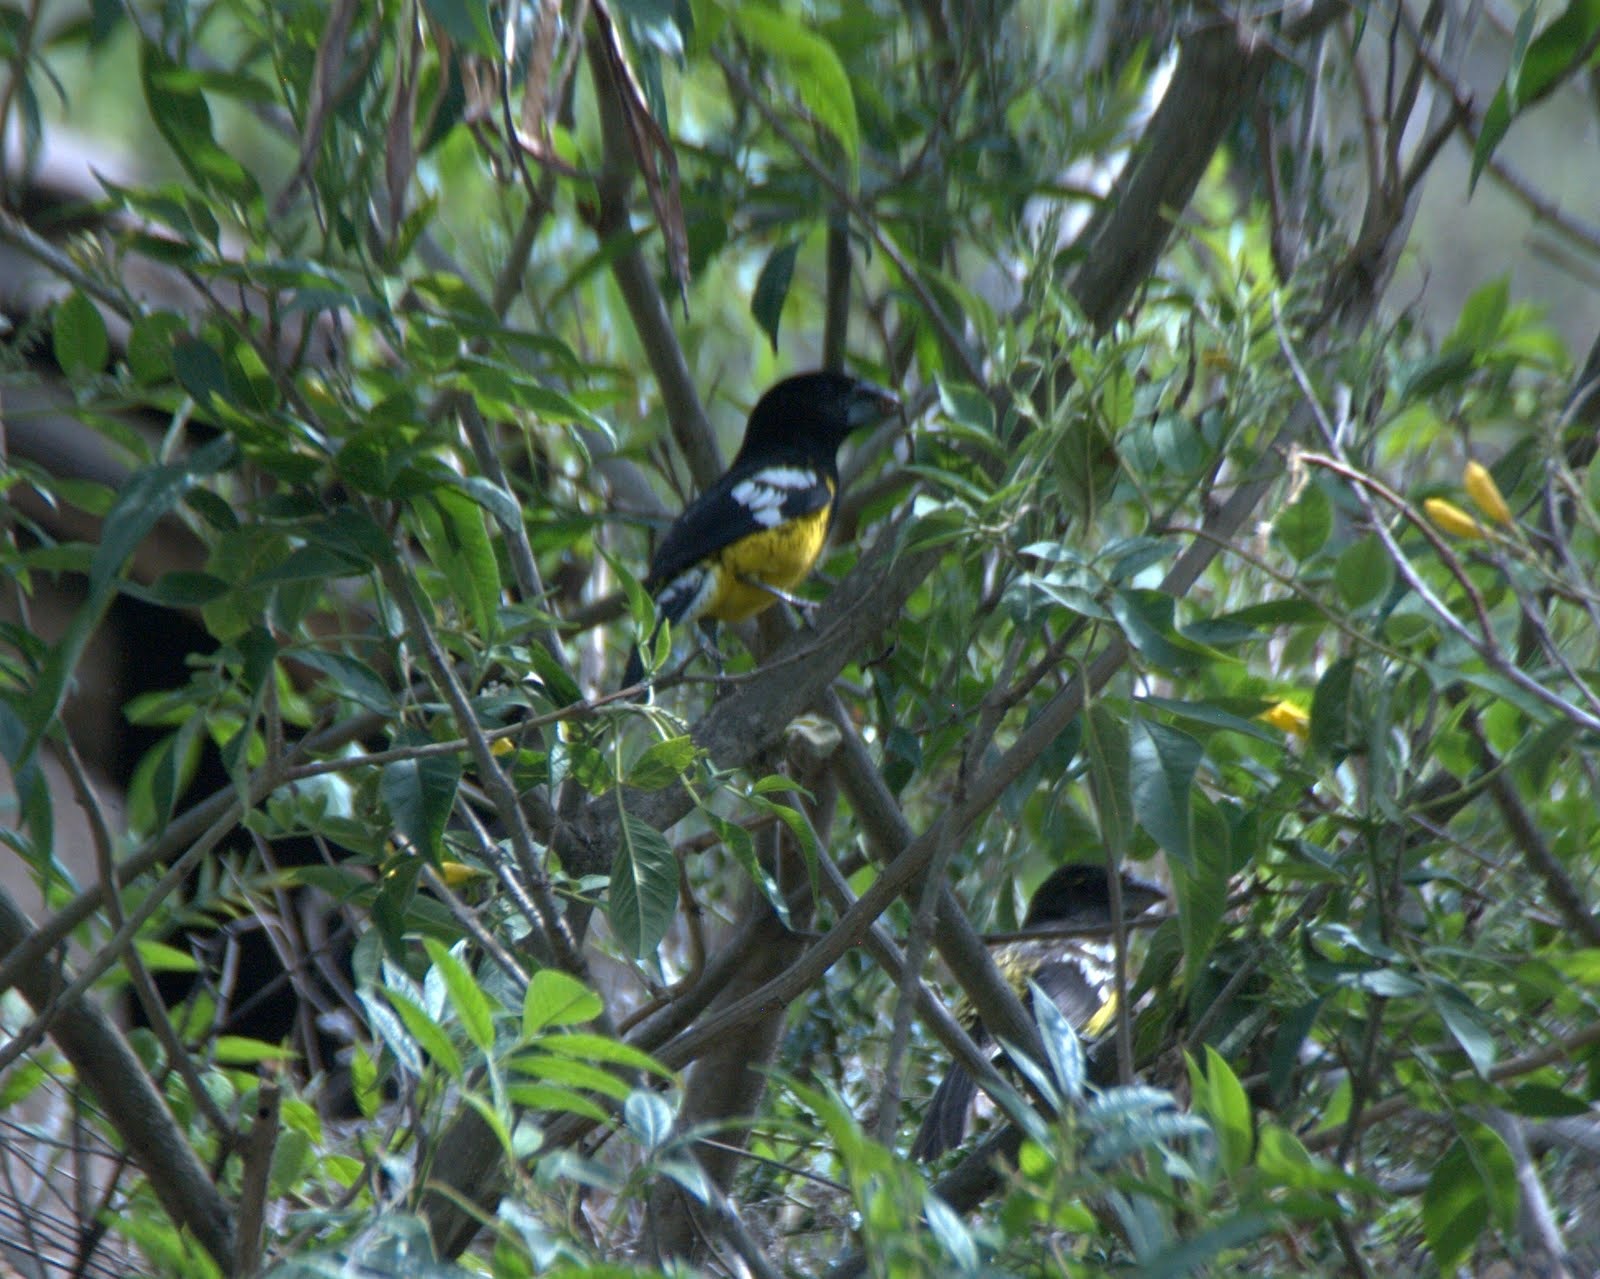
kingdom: Animalia
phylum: Chordata
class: Aves
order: Passeriformes
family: Cardinalidae
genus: Pheucticus
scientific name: Pheucticus aureoventris
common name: Black-backed grosbeak
